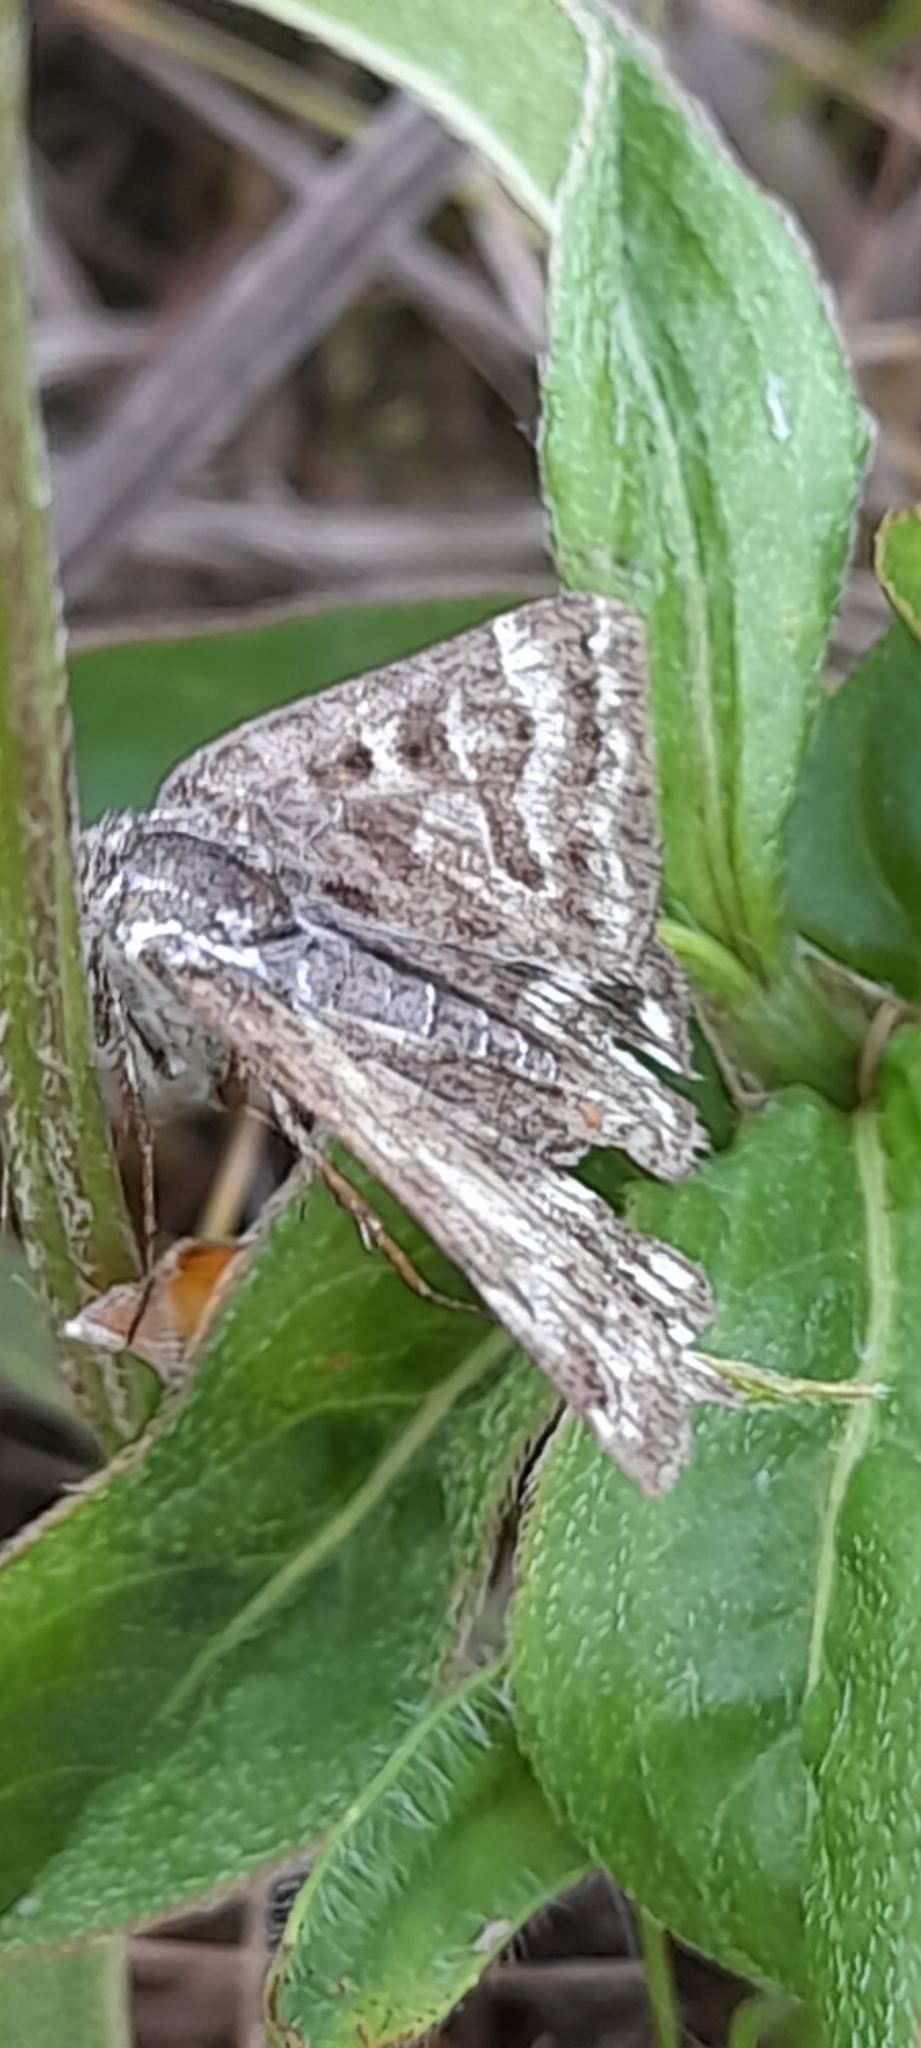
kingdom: Animalia
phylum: Arthropoda
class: Insecta
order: Lepidoptera
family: Erebidae
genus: Callistege
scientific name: Callistege mi
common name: Mother shipton
